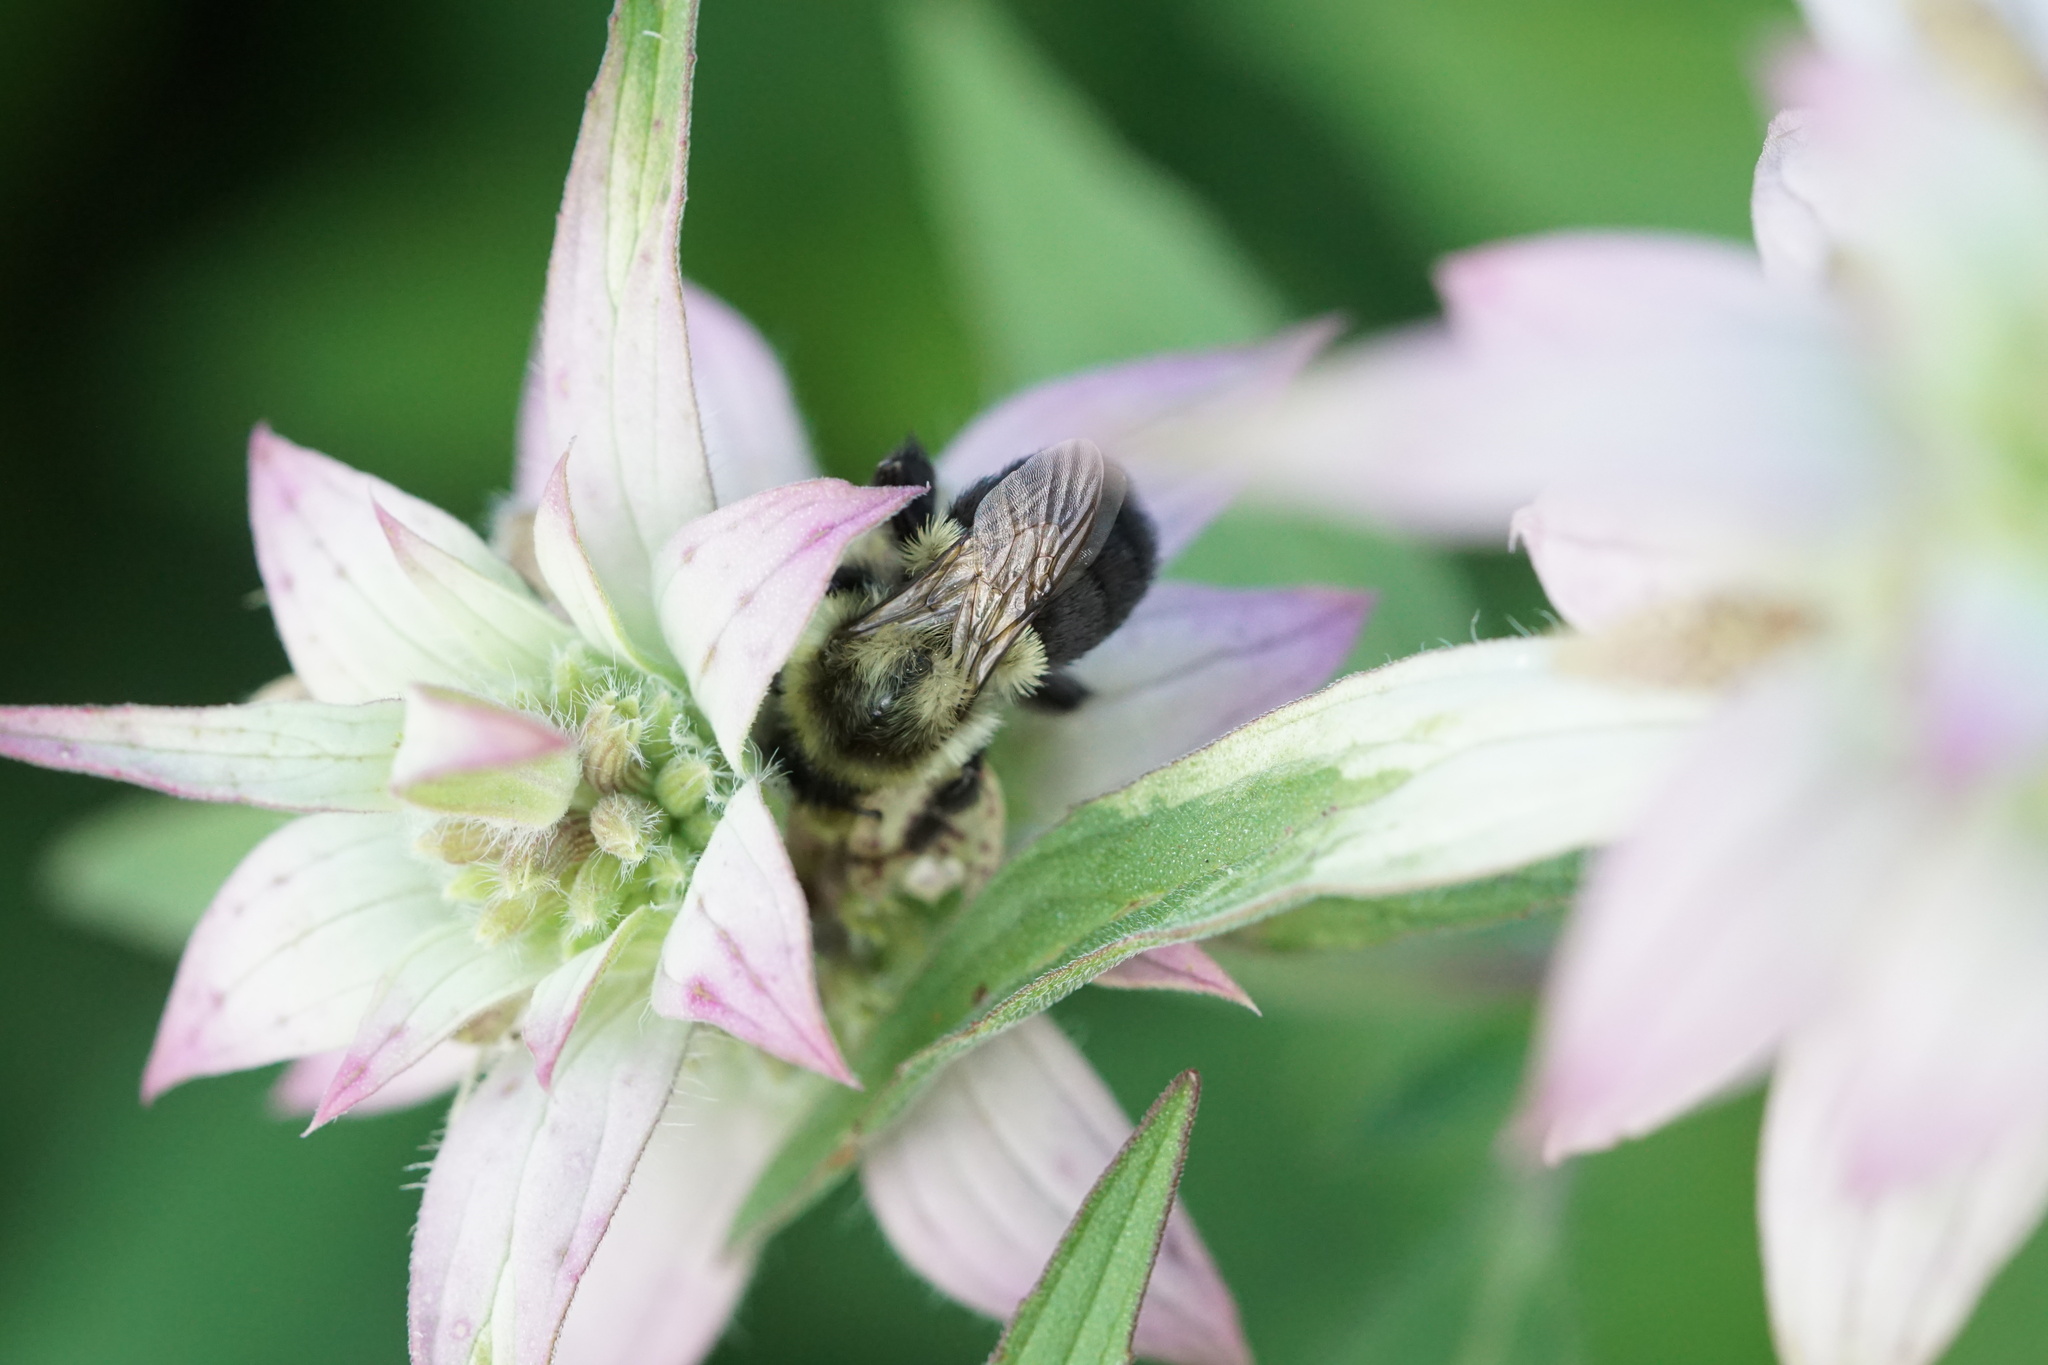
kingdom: Animalia
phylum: Arthropoda
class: Insecta
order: Hymenoptera
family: Apidae
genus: Bombus
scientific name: Bombus impatiens
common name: Common eastern bumble bee
